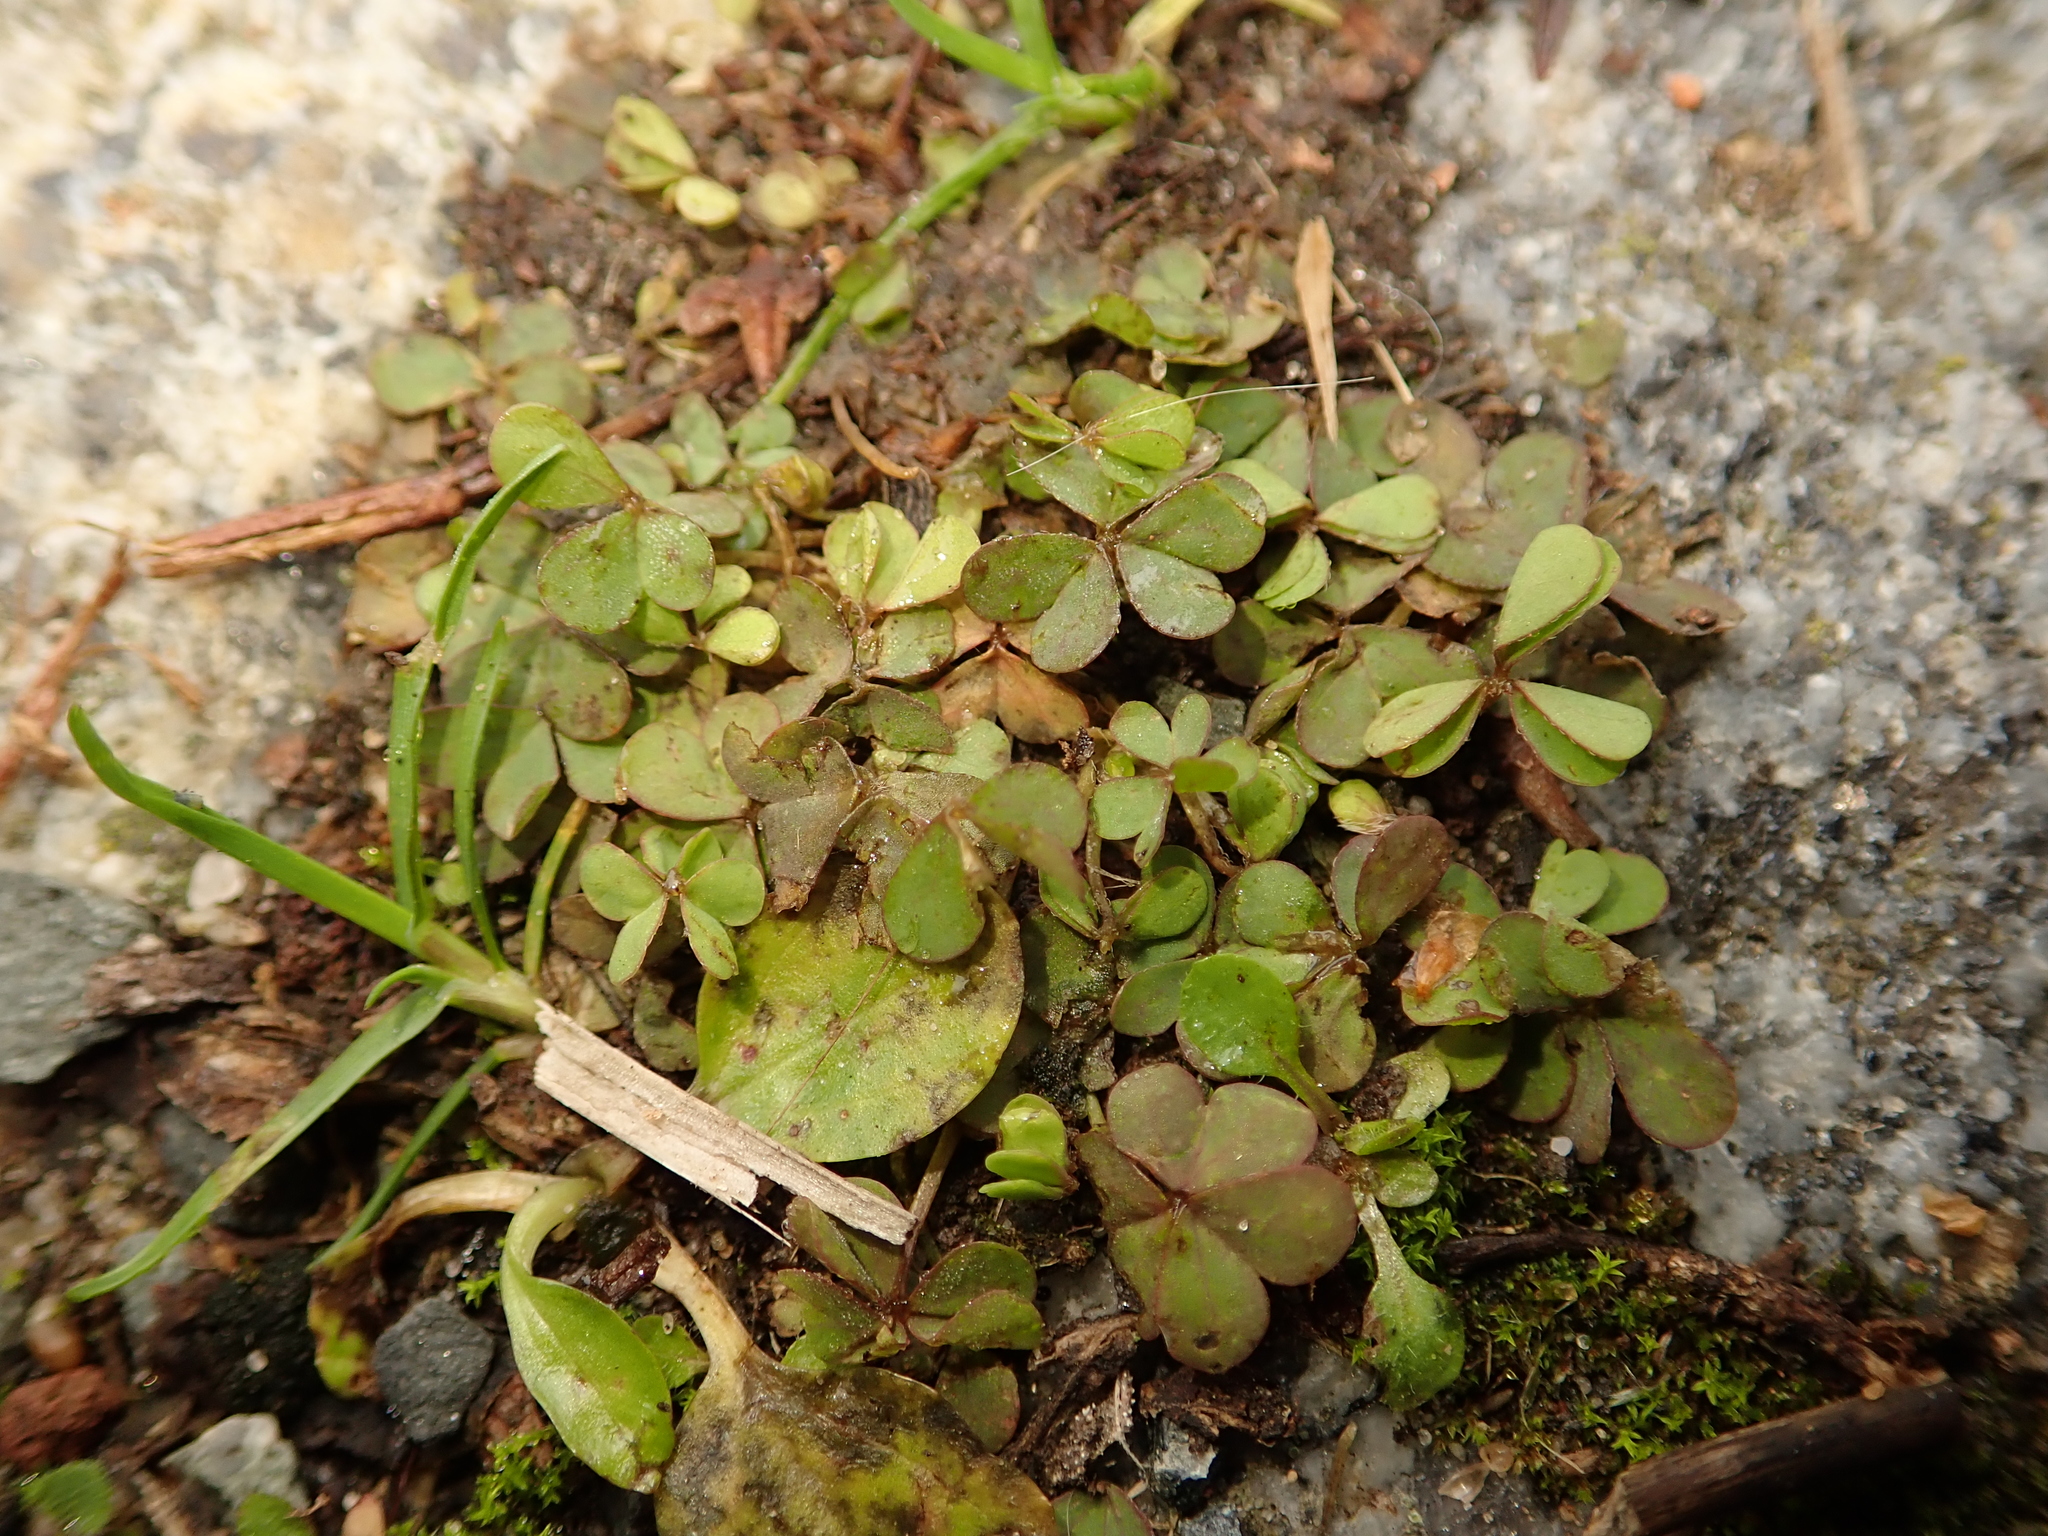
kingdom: Plantae
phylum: Tracheophyta
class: Magnoliopsida
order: Oxalidales
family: Oxalidaceae
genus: Oxalis
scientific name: Oxalis corniculata
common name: Procumbent yellow-sorrel
